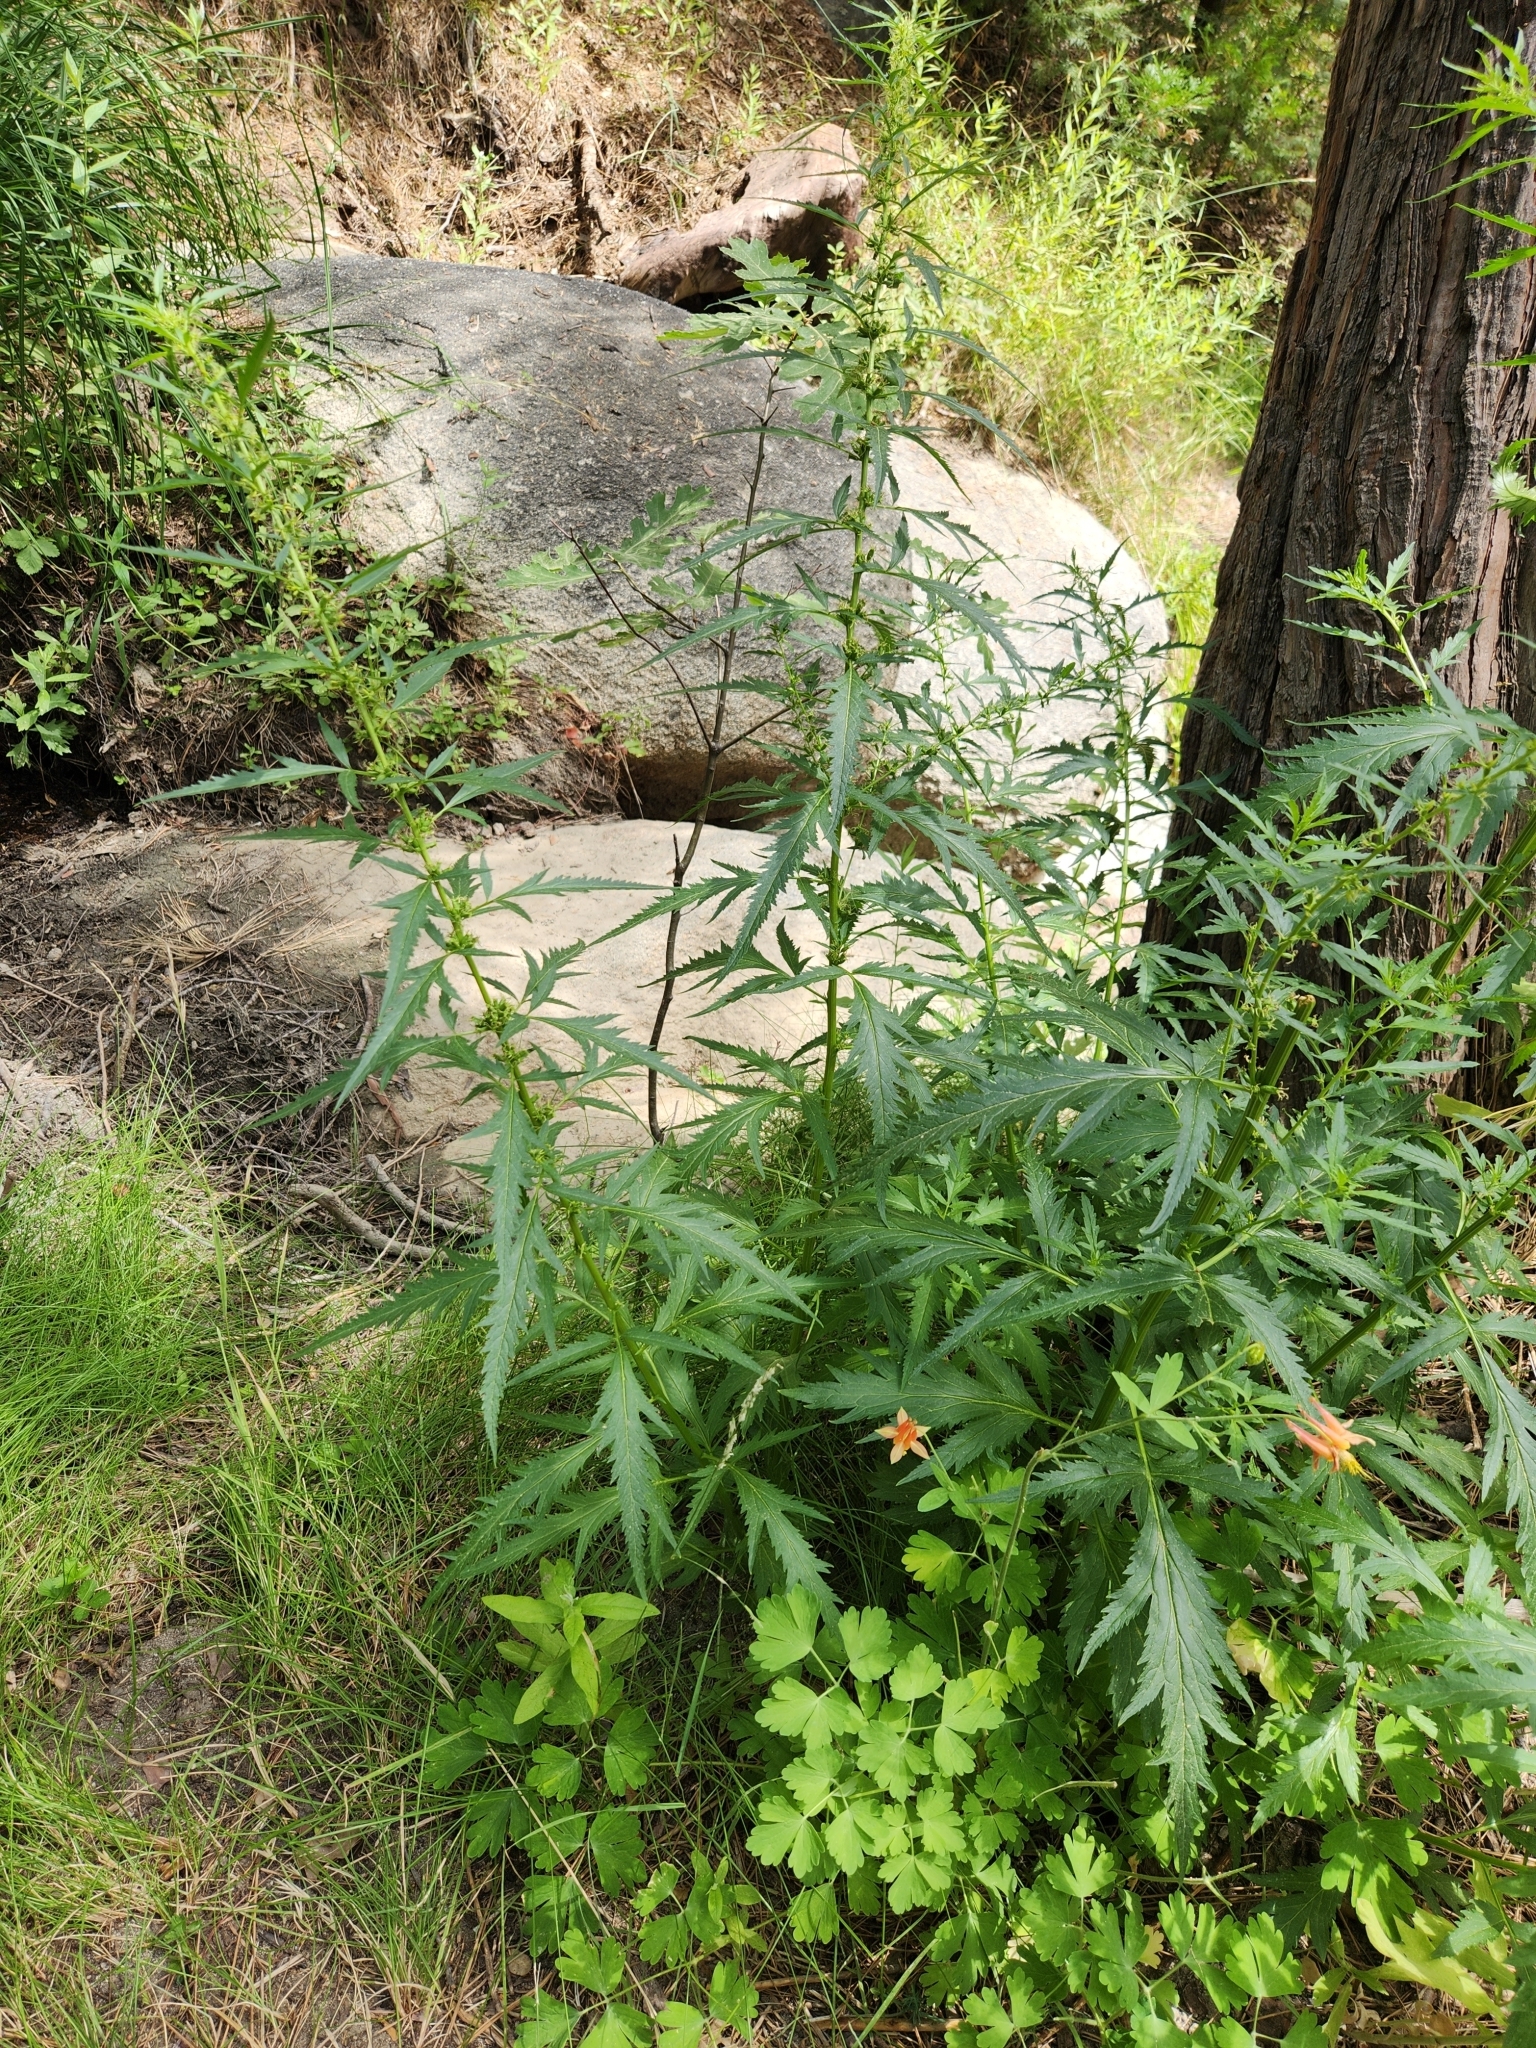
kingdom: Plantae
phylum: Tracheophyta
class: Magnoliopsida
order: Cucurbitales
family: Datiscaceae
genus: Datisca
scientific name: Datisca glomerata
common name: Durango-root
